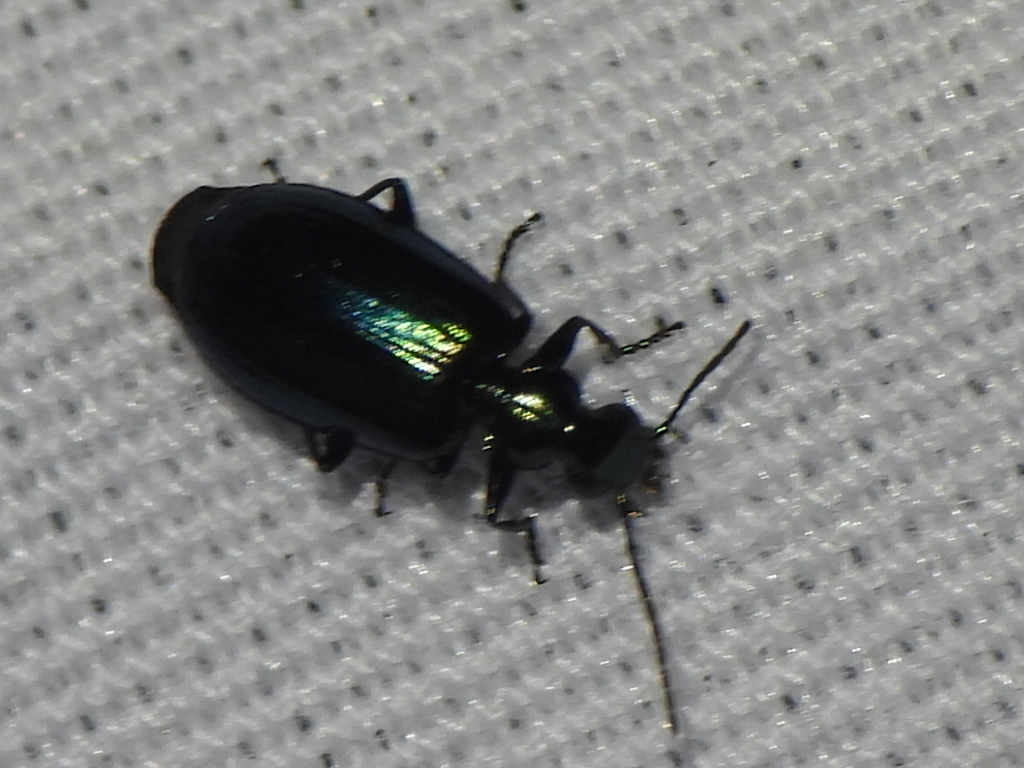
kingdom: Animalia
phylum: Arthropoda
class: Insecta
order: Coleoptera
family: Carabidae
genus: Lebia
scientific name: Lebia viridis
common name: Flower lebia beetle
